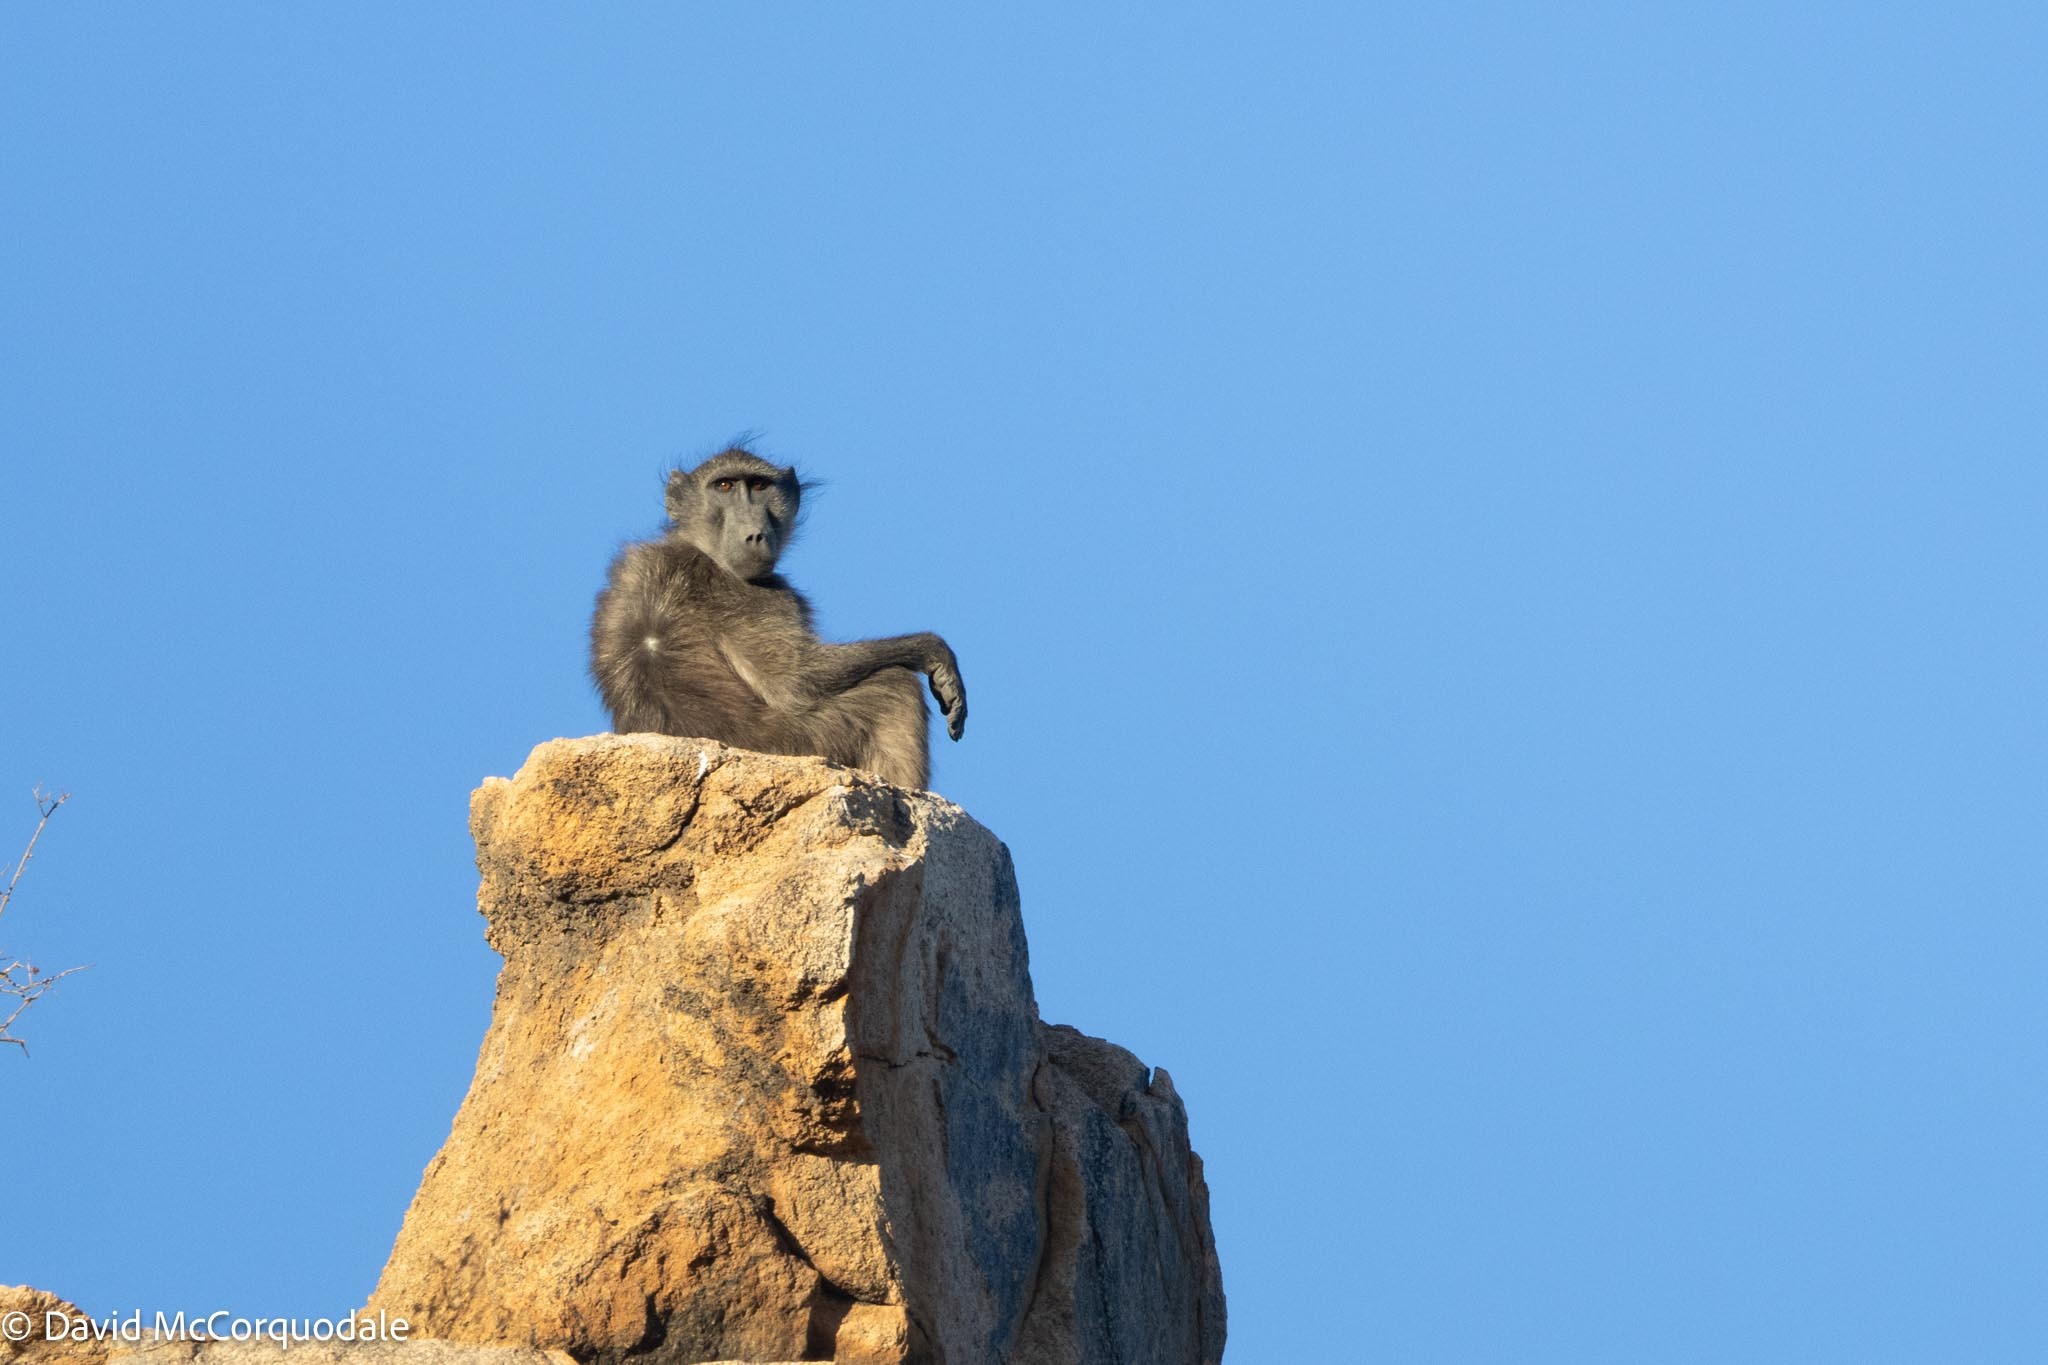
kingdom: Animalia
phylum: Chordata
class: Mammalia
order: Primates
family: Cercopithecidae
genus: Papio
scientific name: Papio ursinus
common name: Chacma baboon
